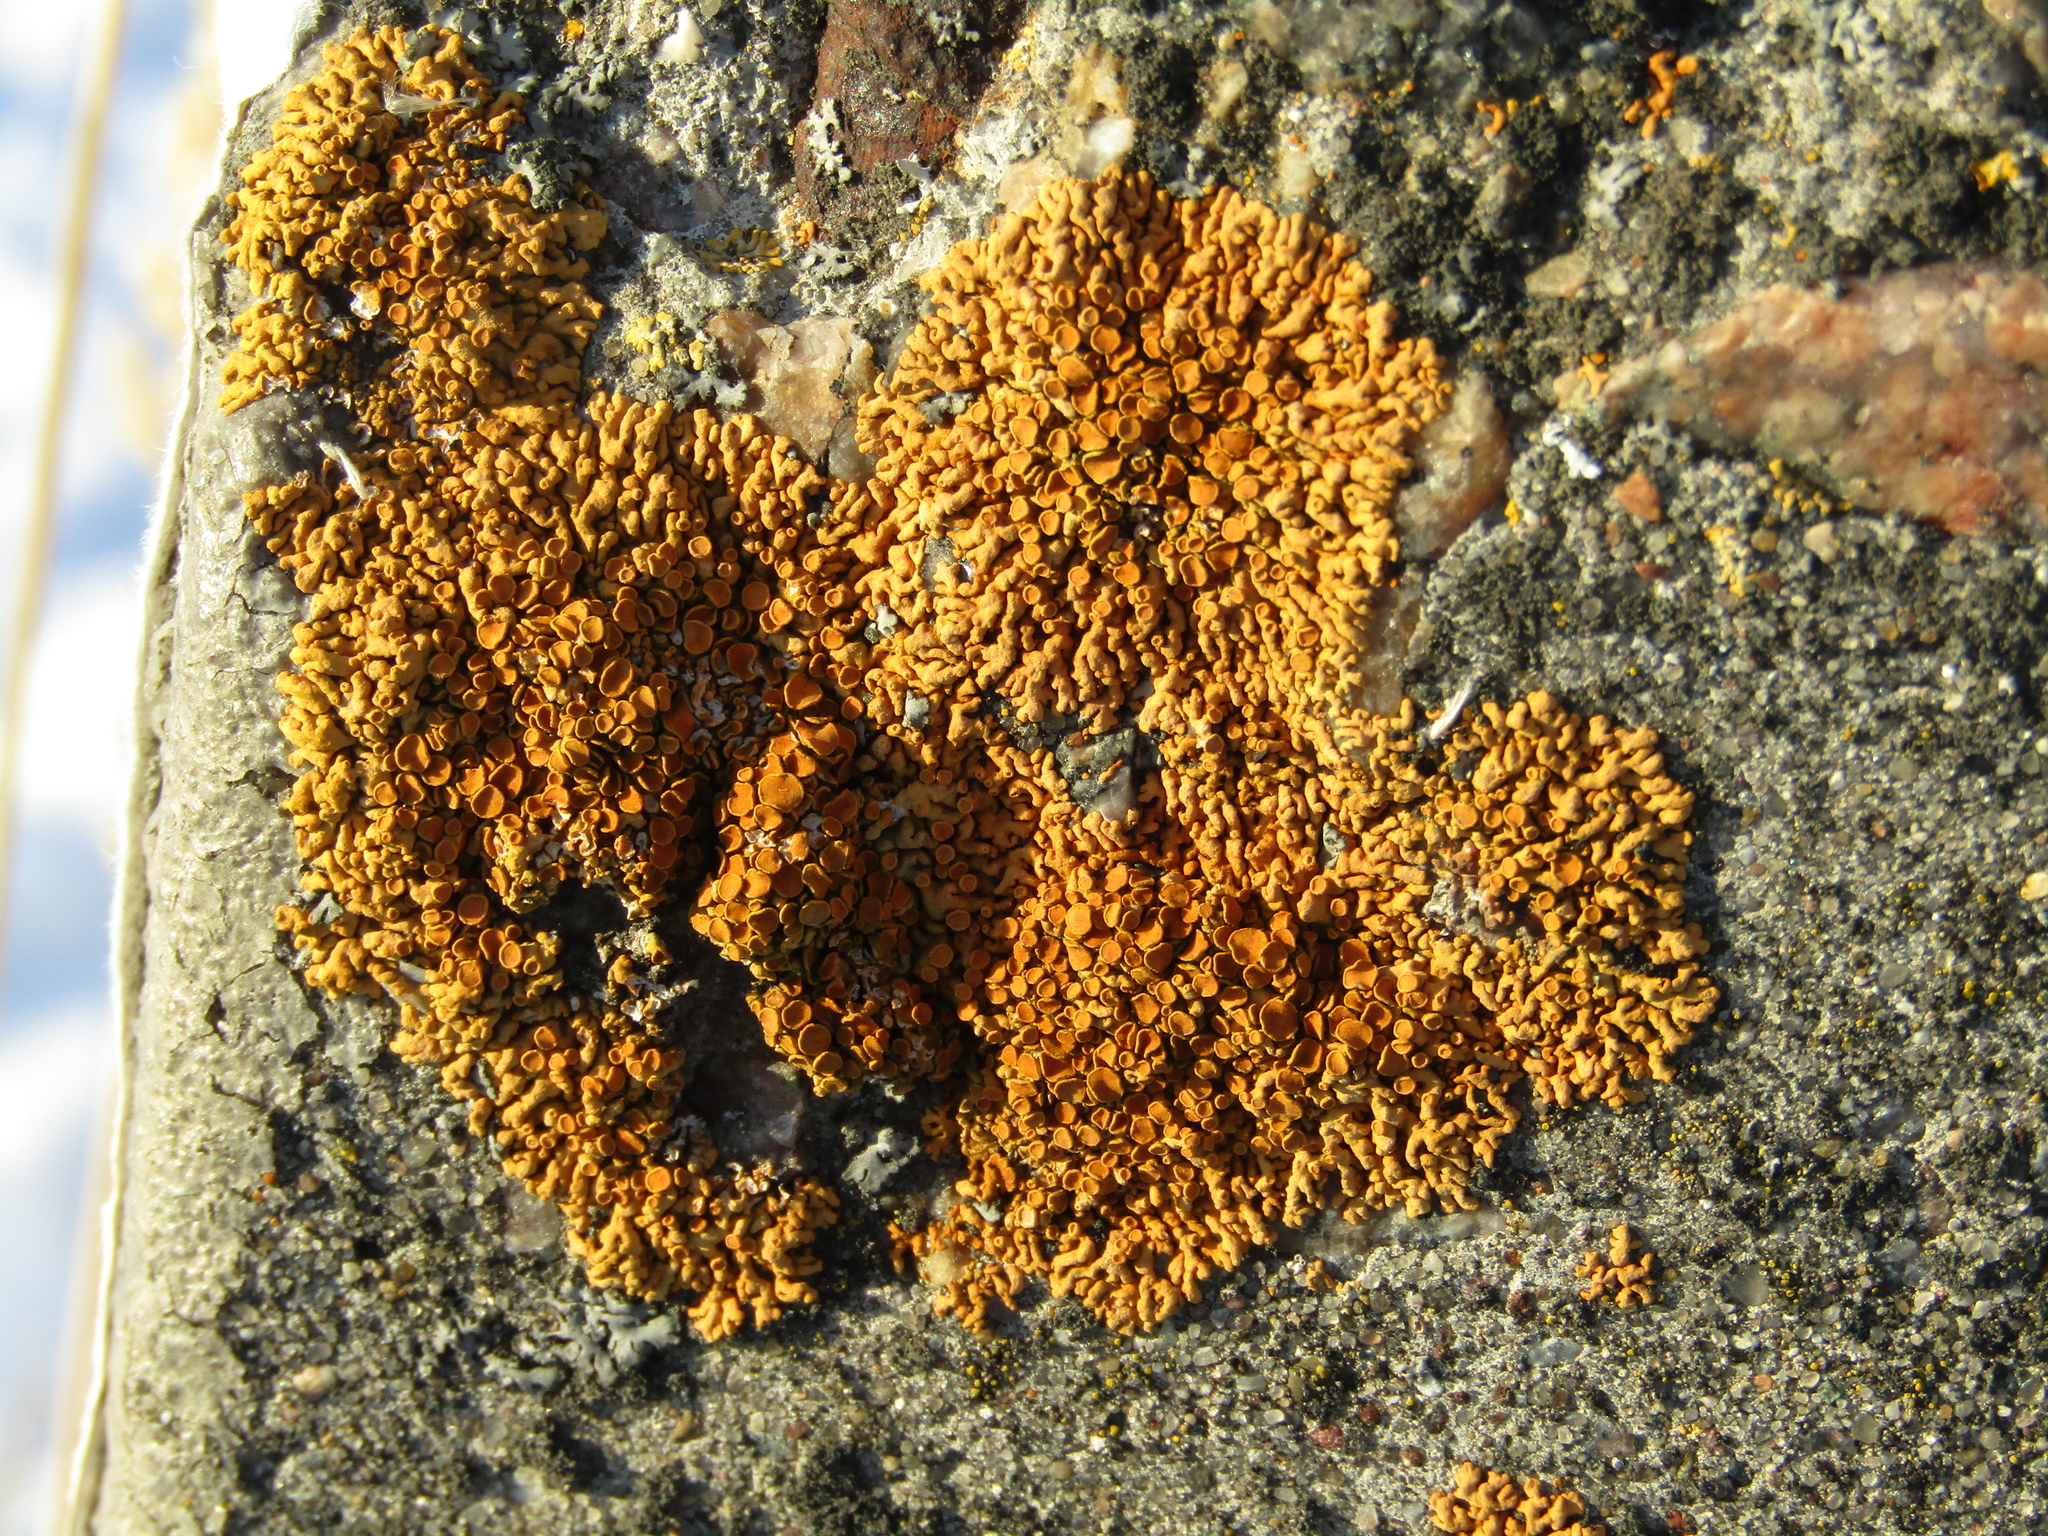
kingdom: Fungi
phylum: Ascomycota
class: Lecanoromycetes
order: Teloschistales
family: Teloschistaceae
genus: Xanthoria
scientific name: Xanthoria elegans
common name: Elegant sunburst lichen
